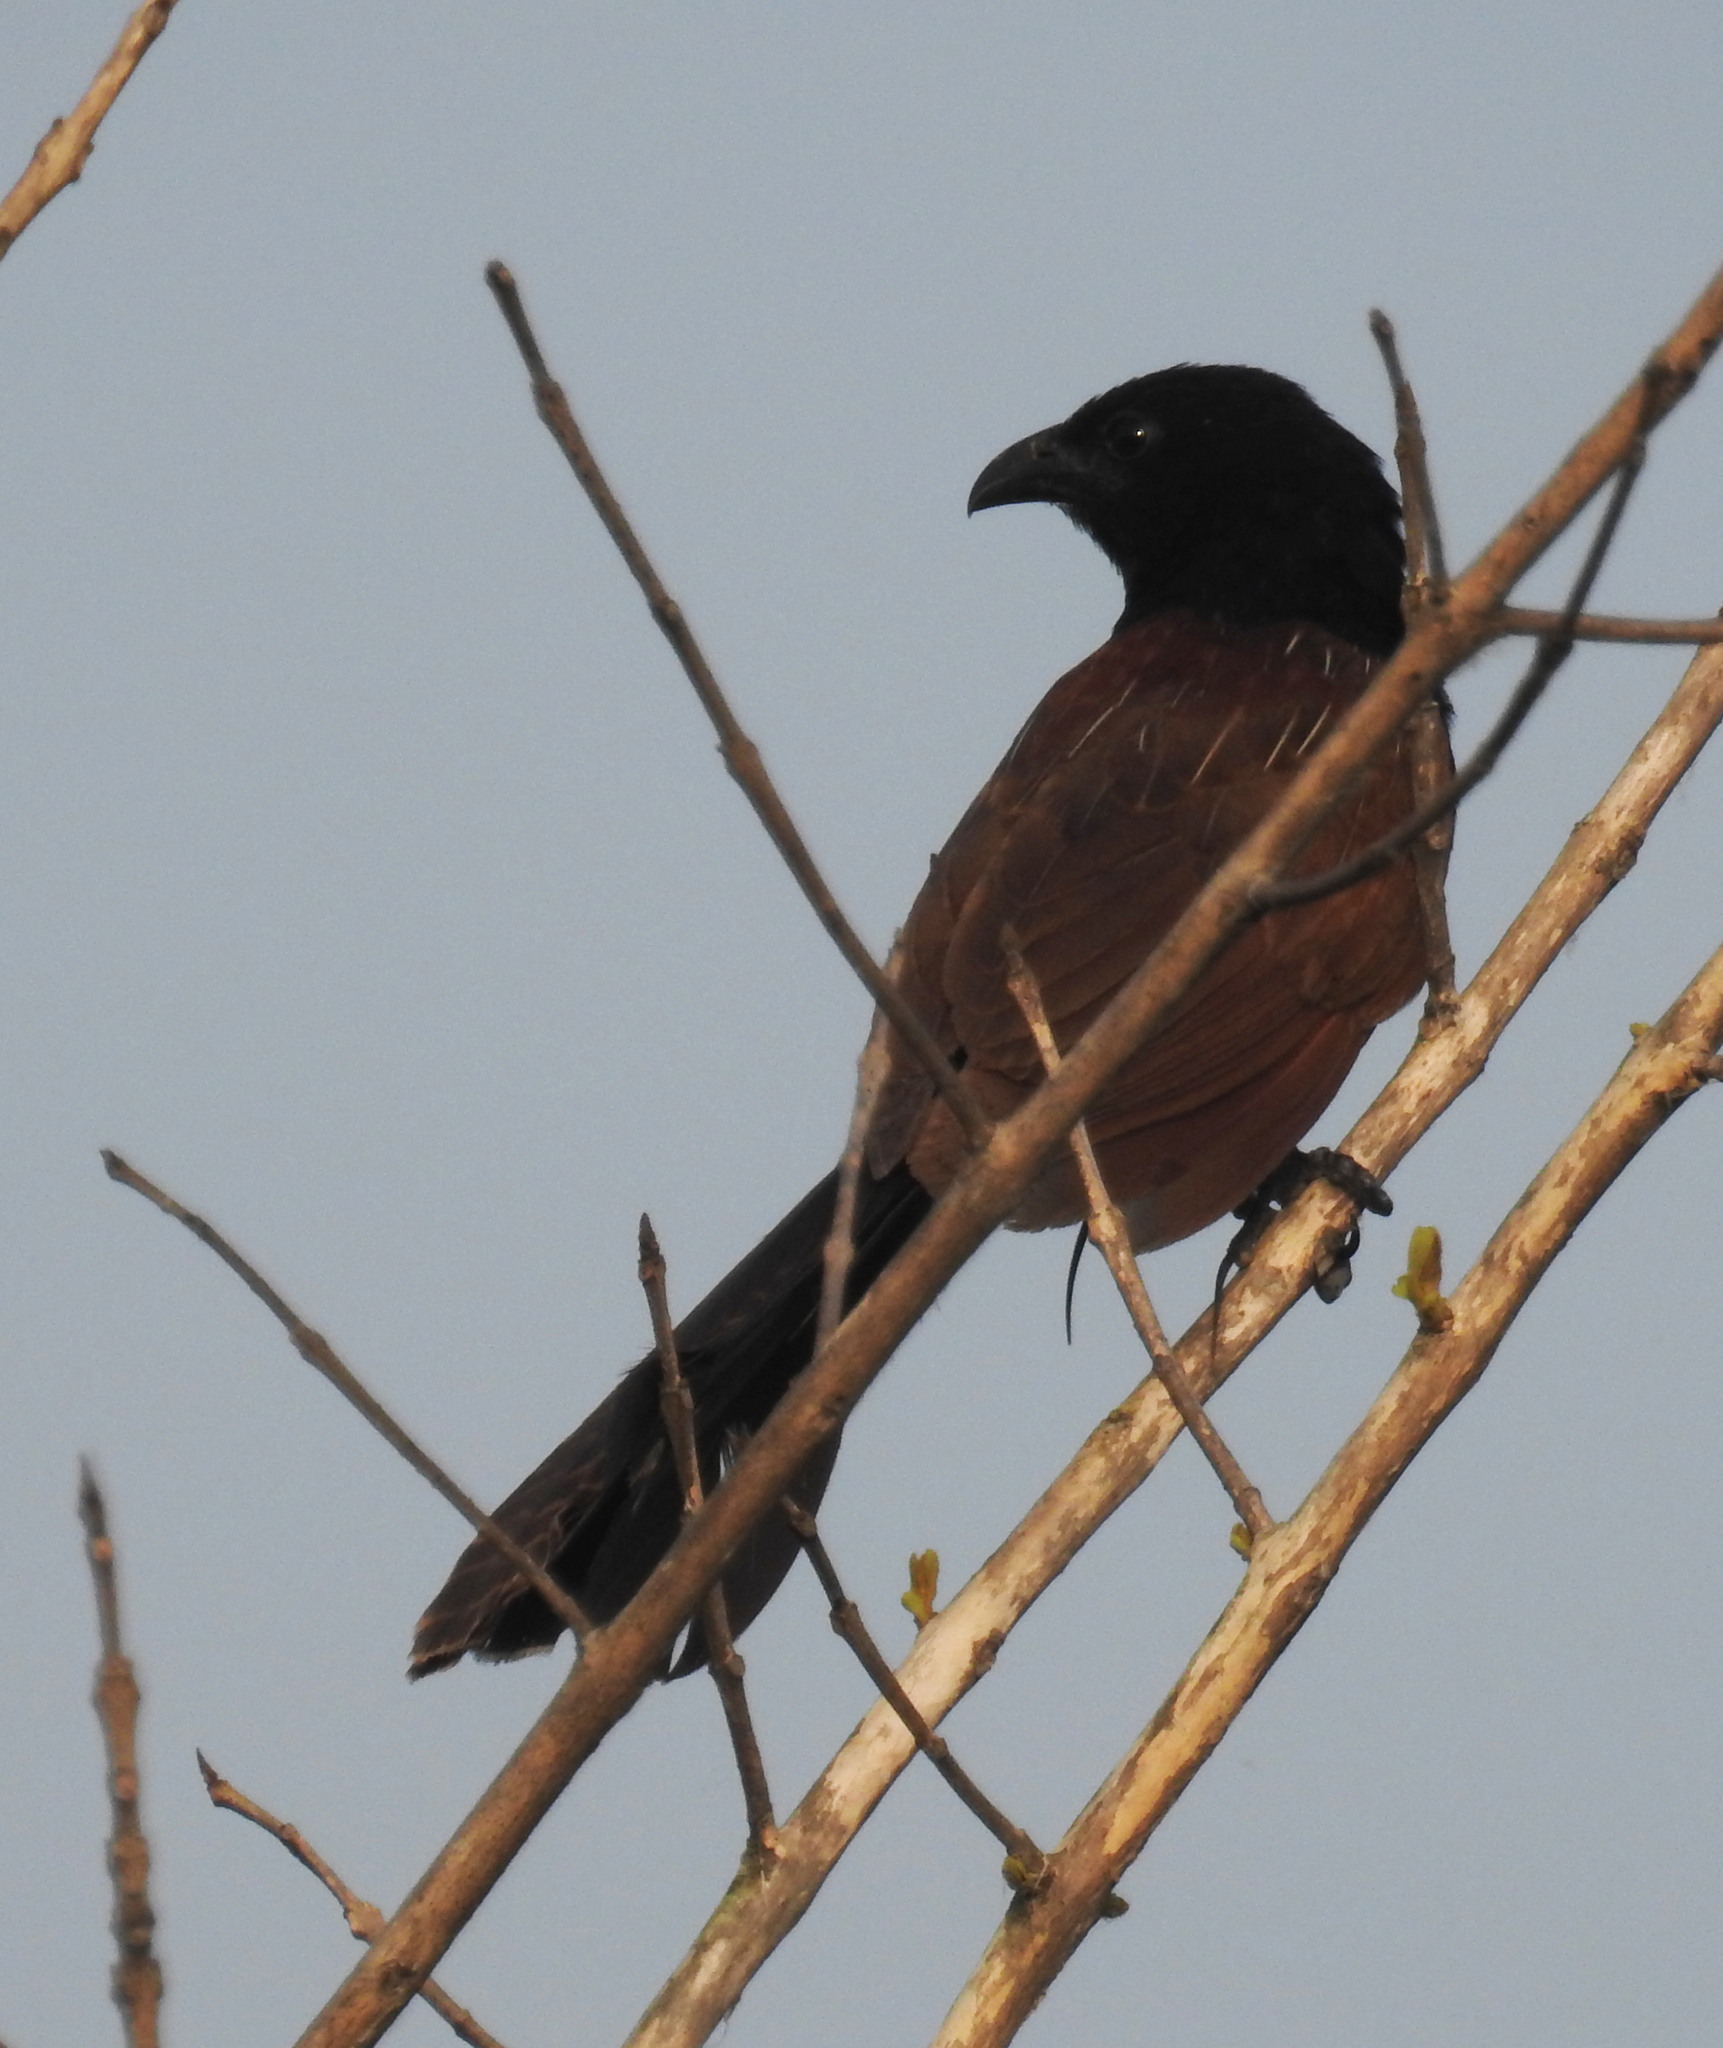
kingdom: Animalia
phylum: Chordata
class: Aves
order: Cuculiformes
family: Cuculidae
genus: Centropus
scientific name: Centropus bengalensis
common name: Lesser coucal
